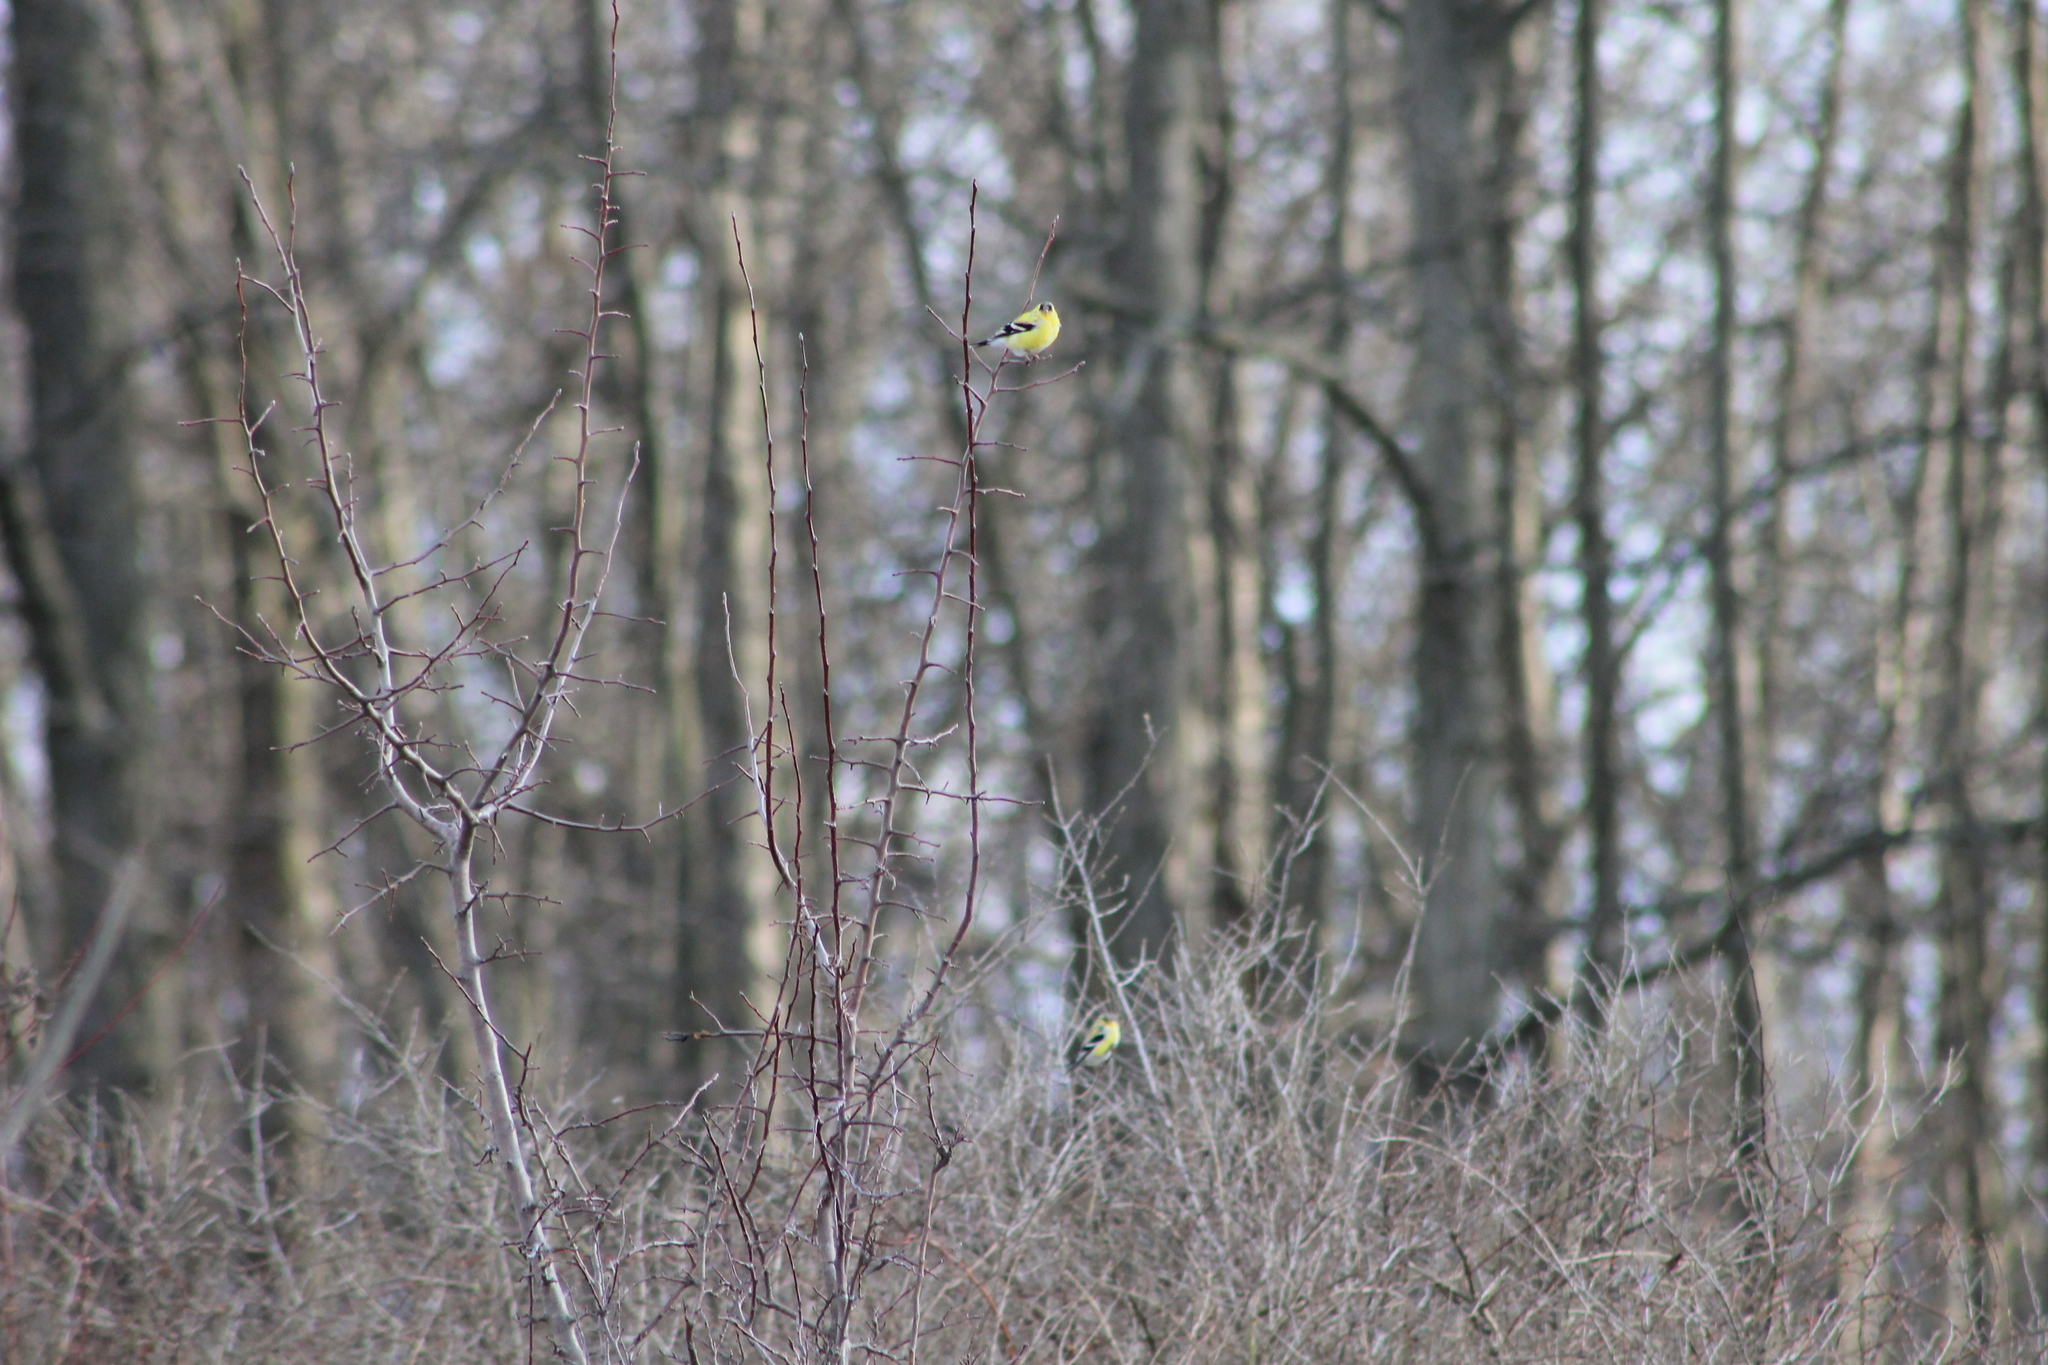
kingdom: Animalia
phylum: Chordata
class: Aves
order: Passeriformes
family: Fringillidae
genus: Spinus
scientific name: Spinus tristis
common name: American goldfinch
